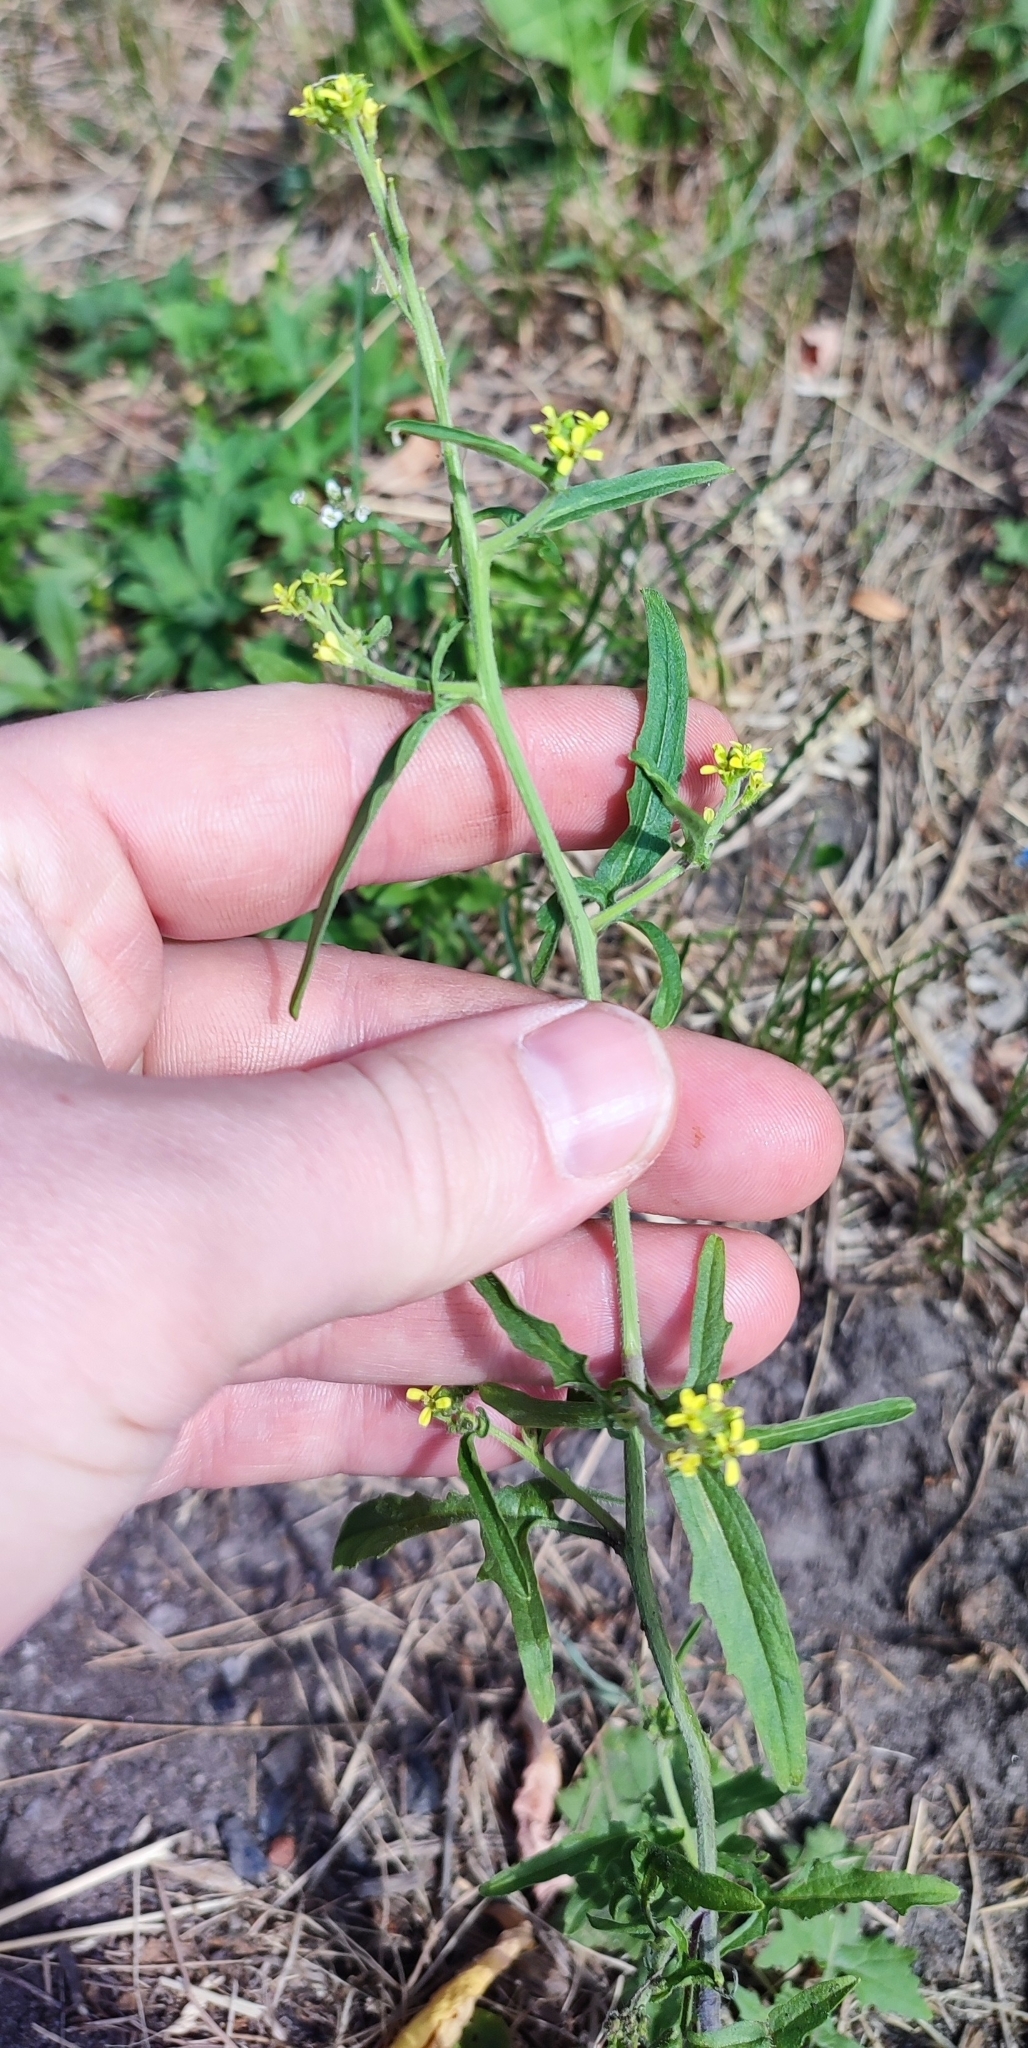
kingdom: Plantae
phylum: Tracheophyta
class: Magnoliopsida
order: Brassicales
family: Brassicaceae
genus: Sisymbrium
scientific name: Sisymbrium officinale
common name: Hedge mustard
